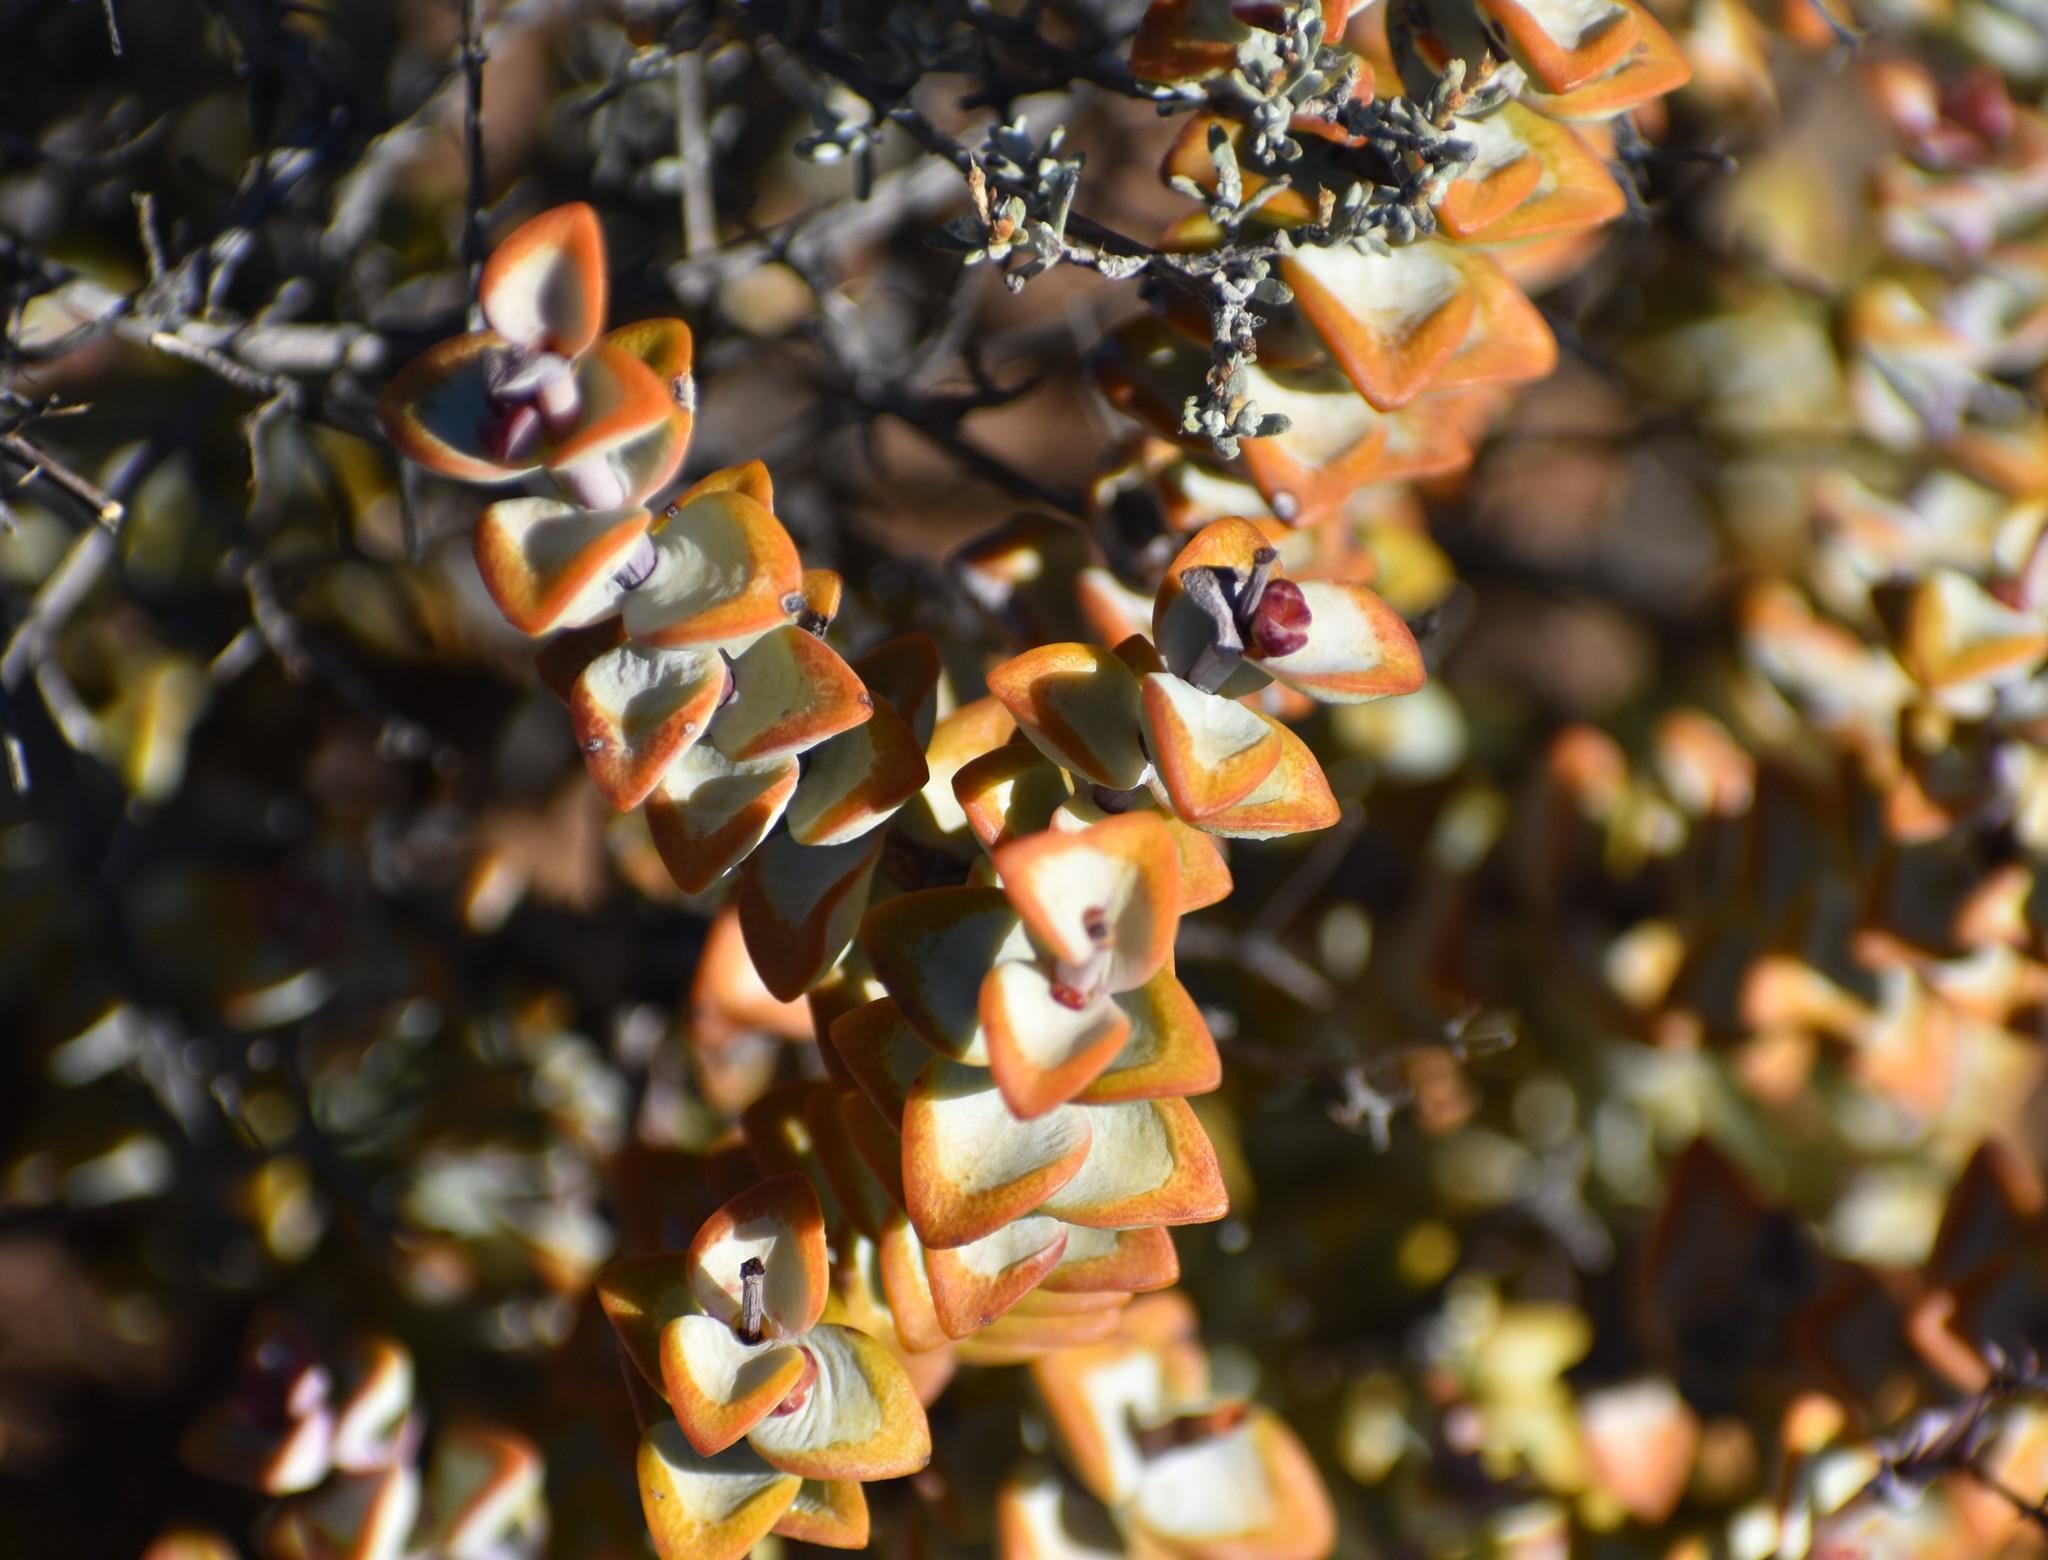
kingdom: Plantae
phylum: Tracheophyta
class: Magnoliopsida
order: Saxifragales
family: Crassulaceae
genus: Crassula
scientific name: Crassula rupestris
